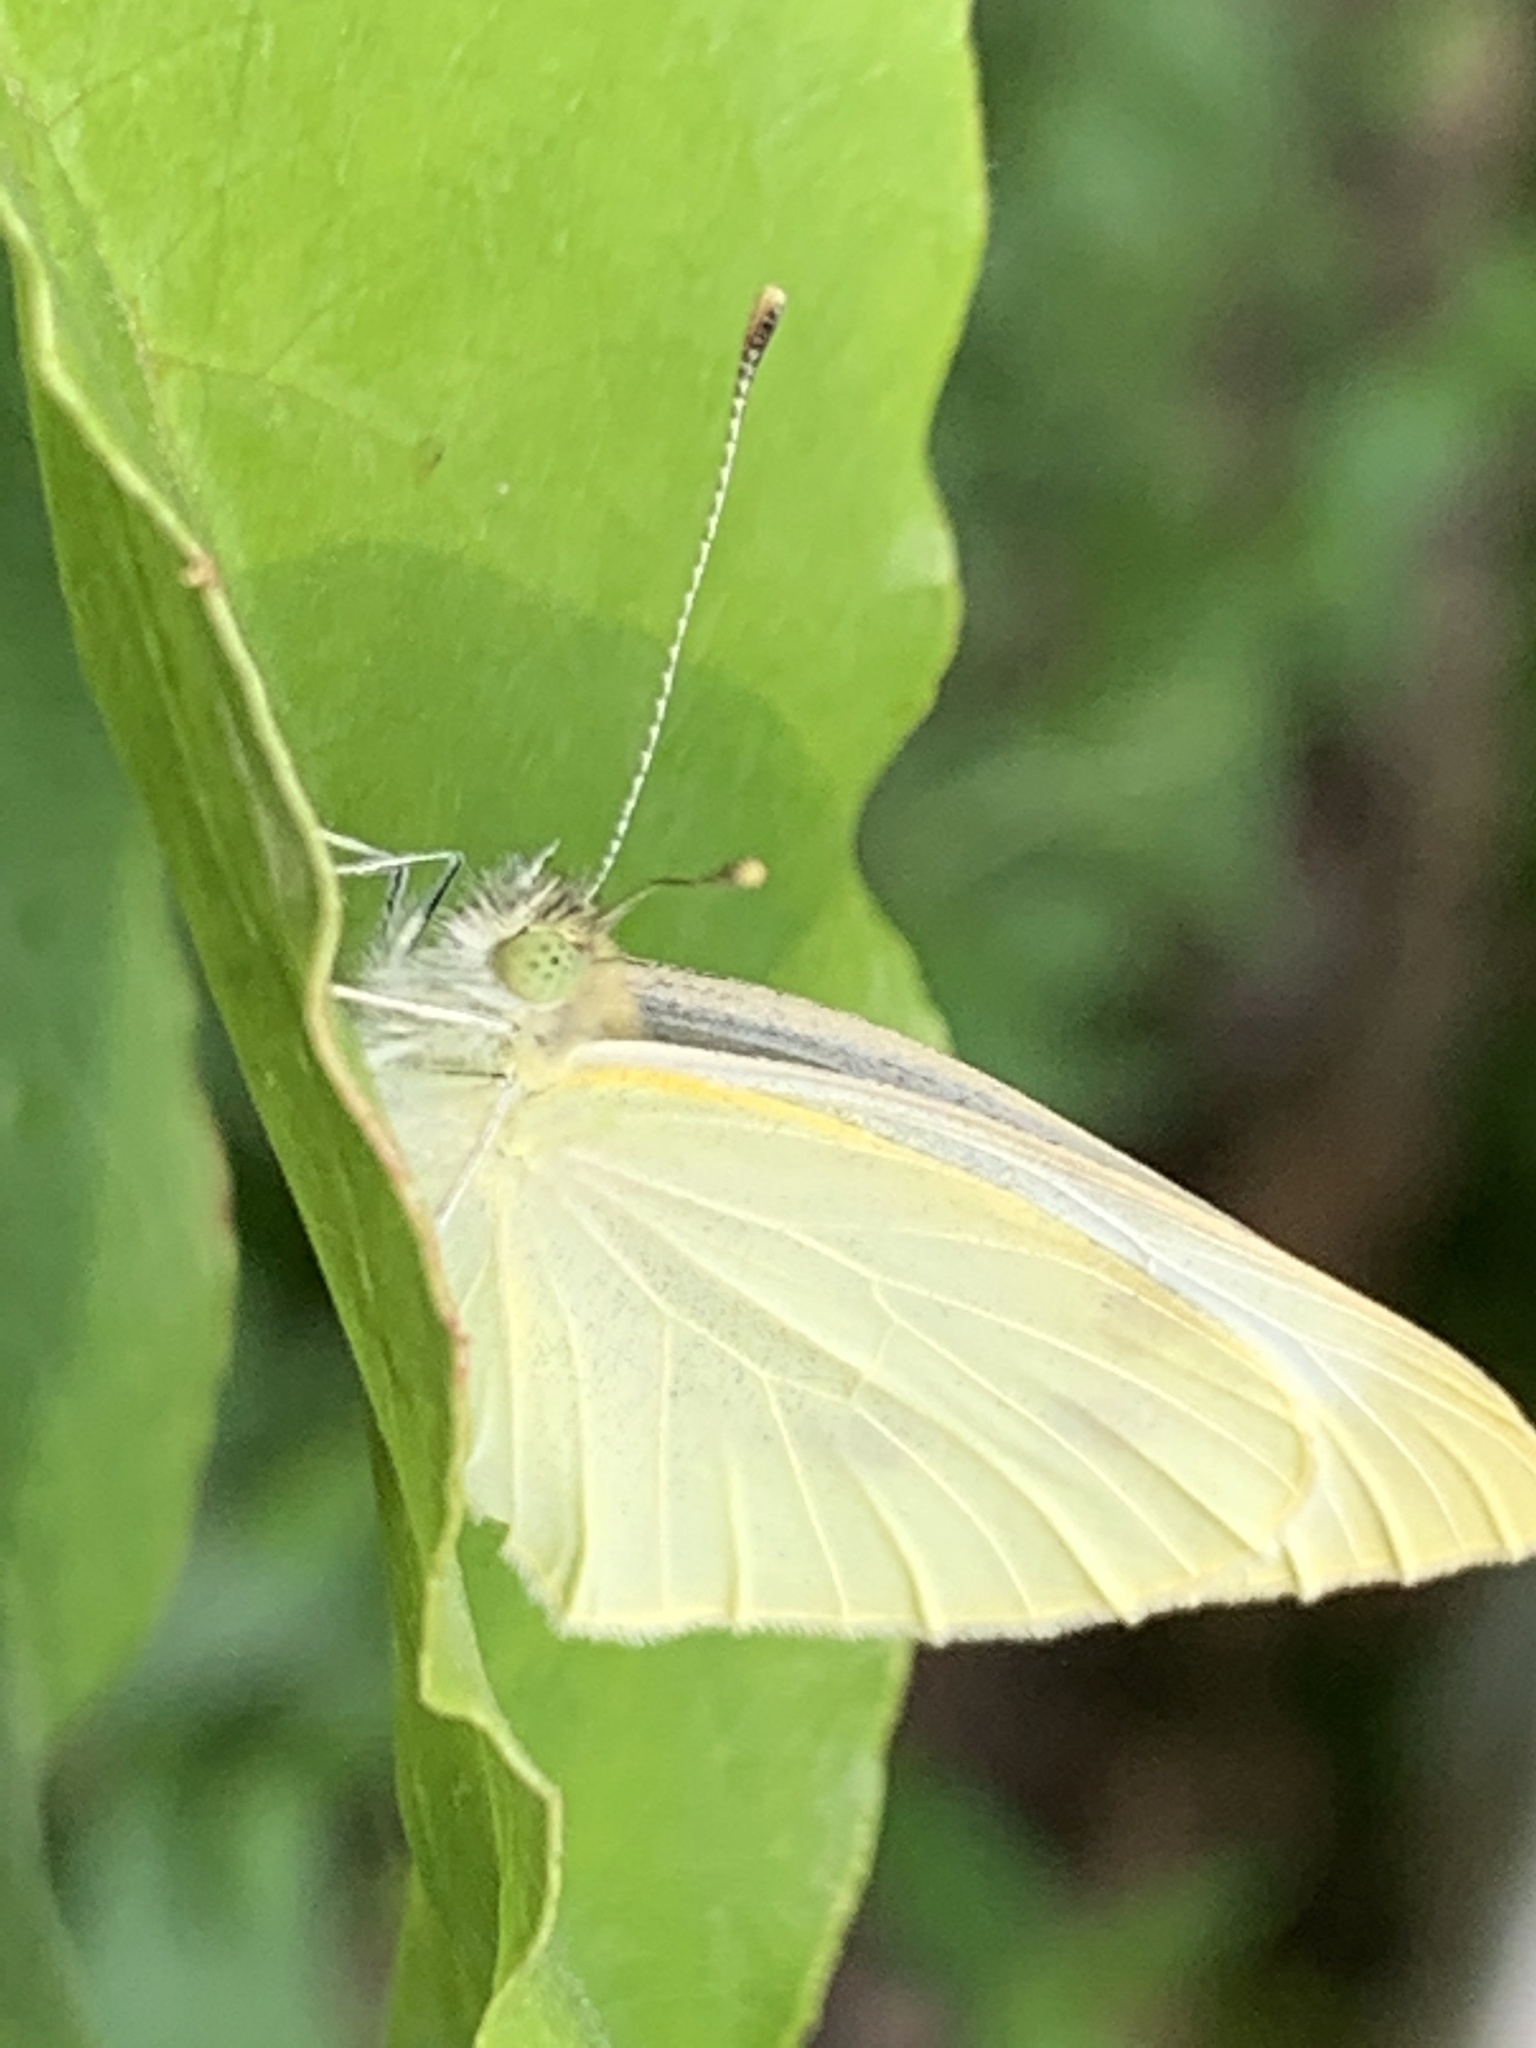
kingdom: Animalia
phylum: Arthropoda
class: Insecta
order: Lepidoptera
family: Pieridae
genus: Pieris
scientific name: Pieris rapae
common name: Small white
